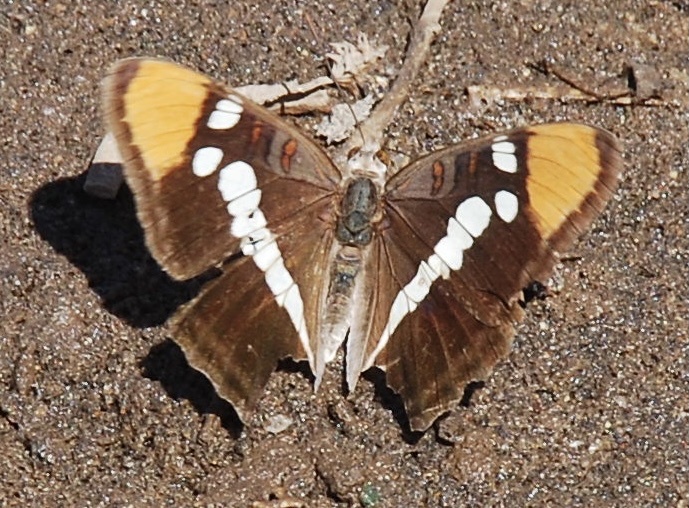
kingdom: Animalia
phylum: Arthropoda
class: Insecta
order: Lepidoptera
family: Nymphalidae
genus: Limenitis
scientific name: Limenitis bredowii
